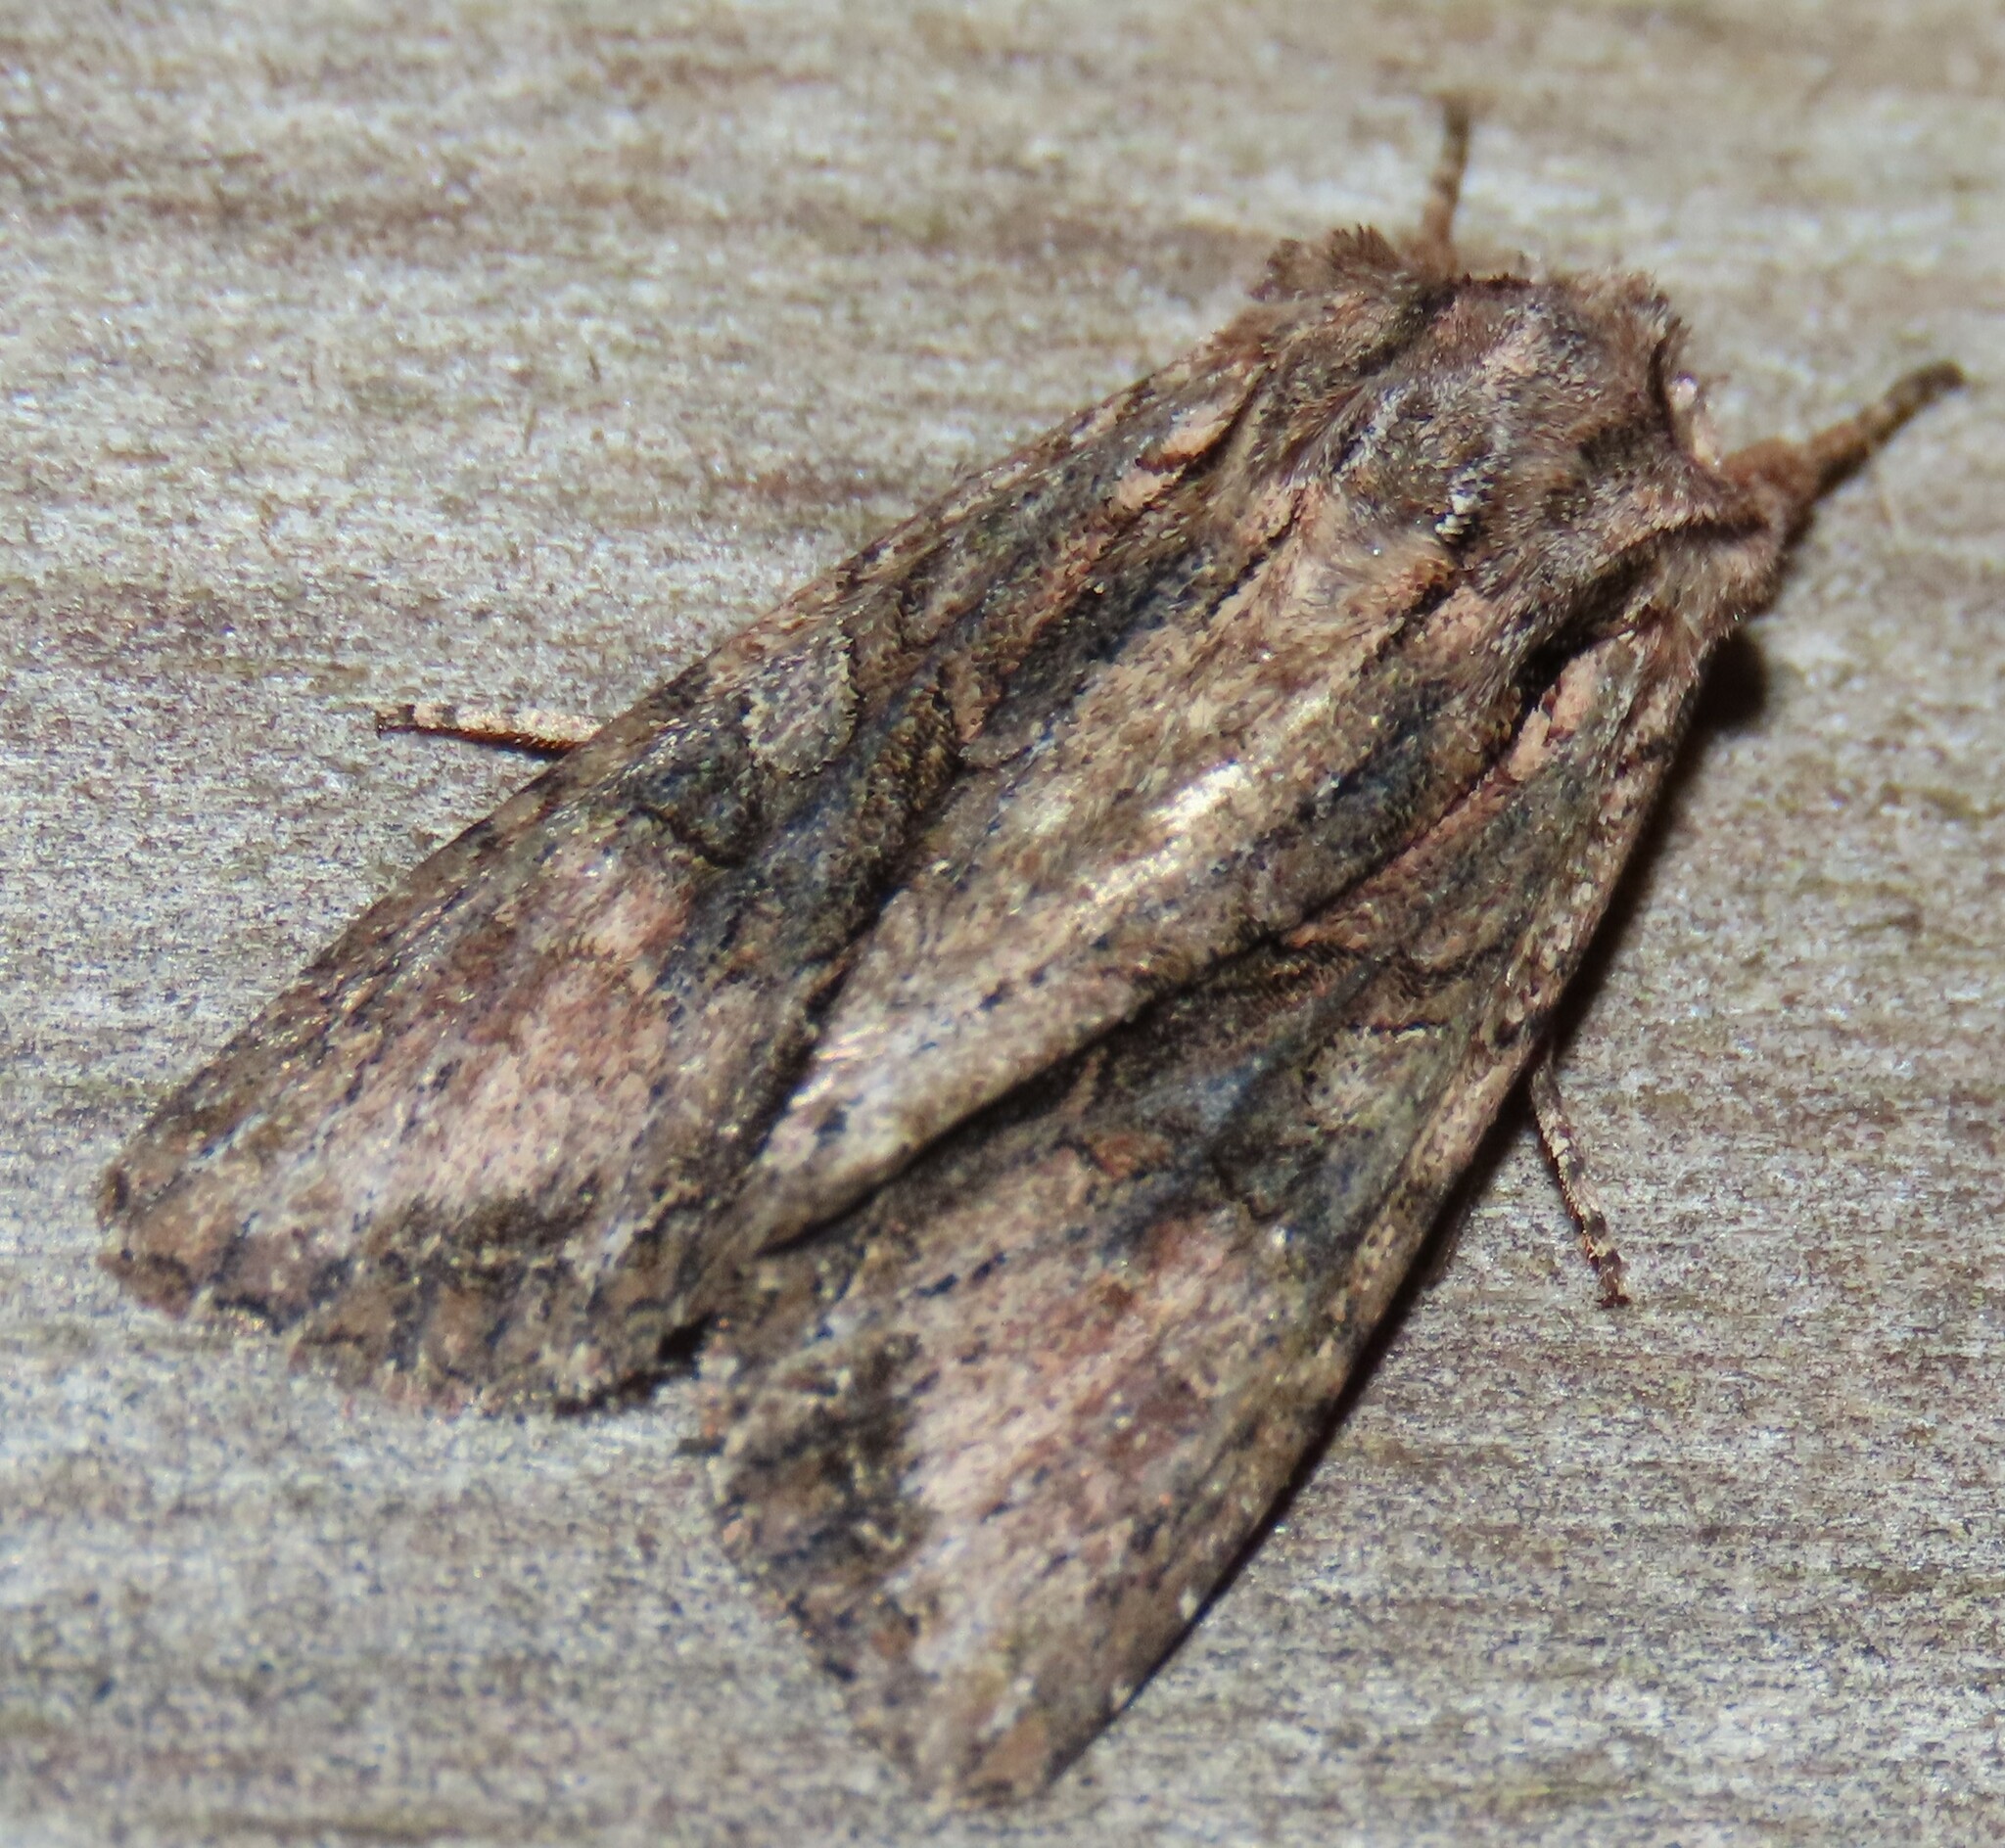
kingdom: Animalia
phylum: Arthropoda
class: Insecta
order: Lepidoptera
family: Noctuidae
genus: Ichneutica
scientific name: Ichneutica mutans
